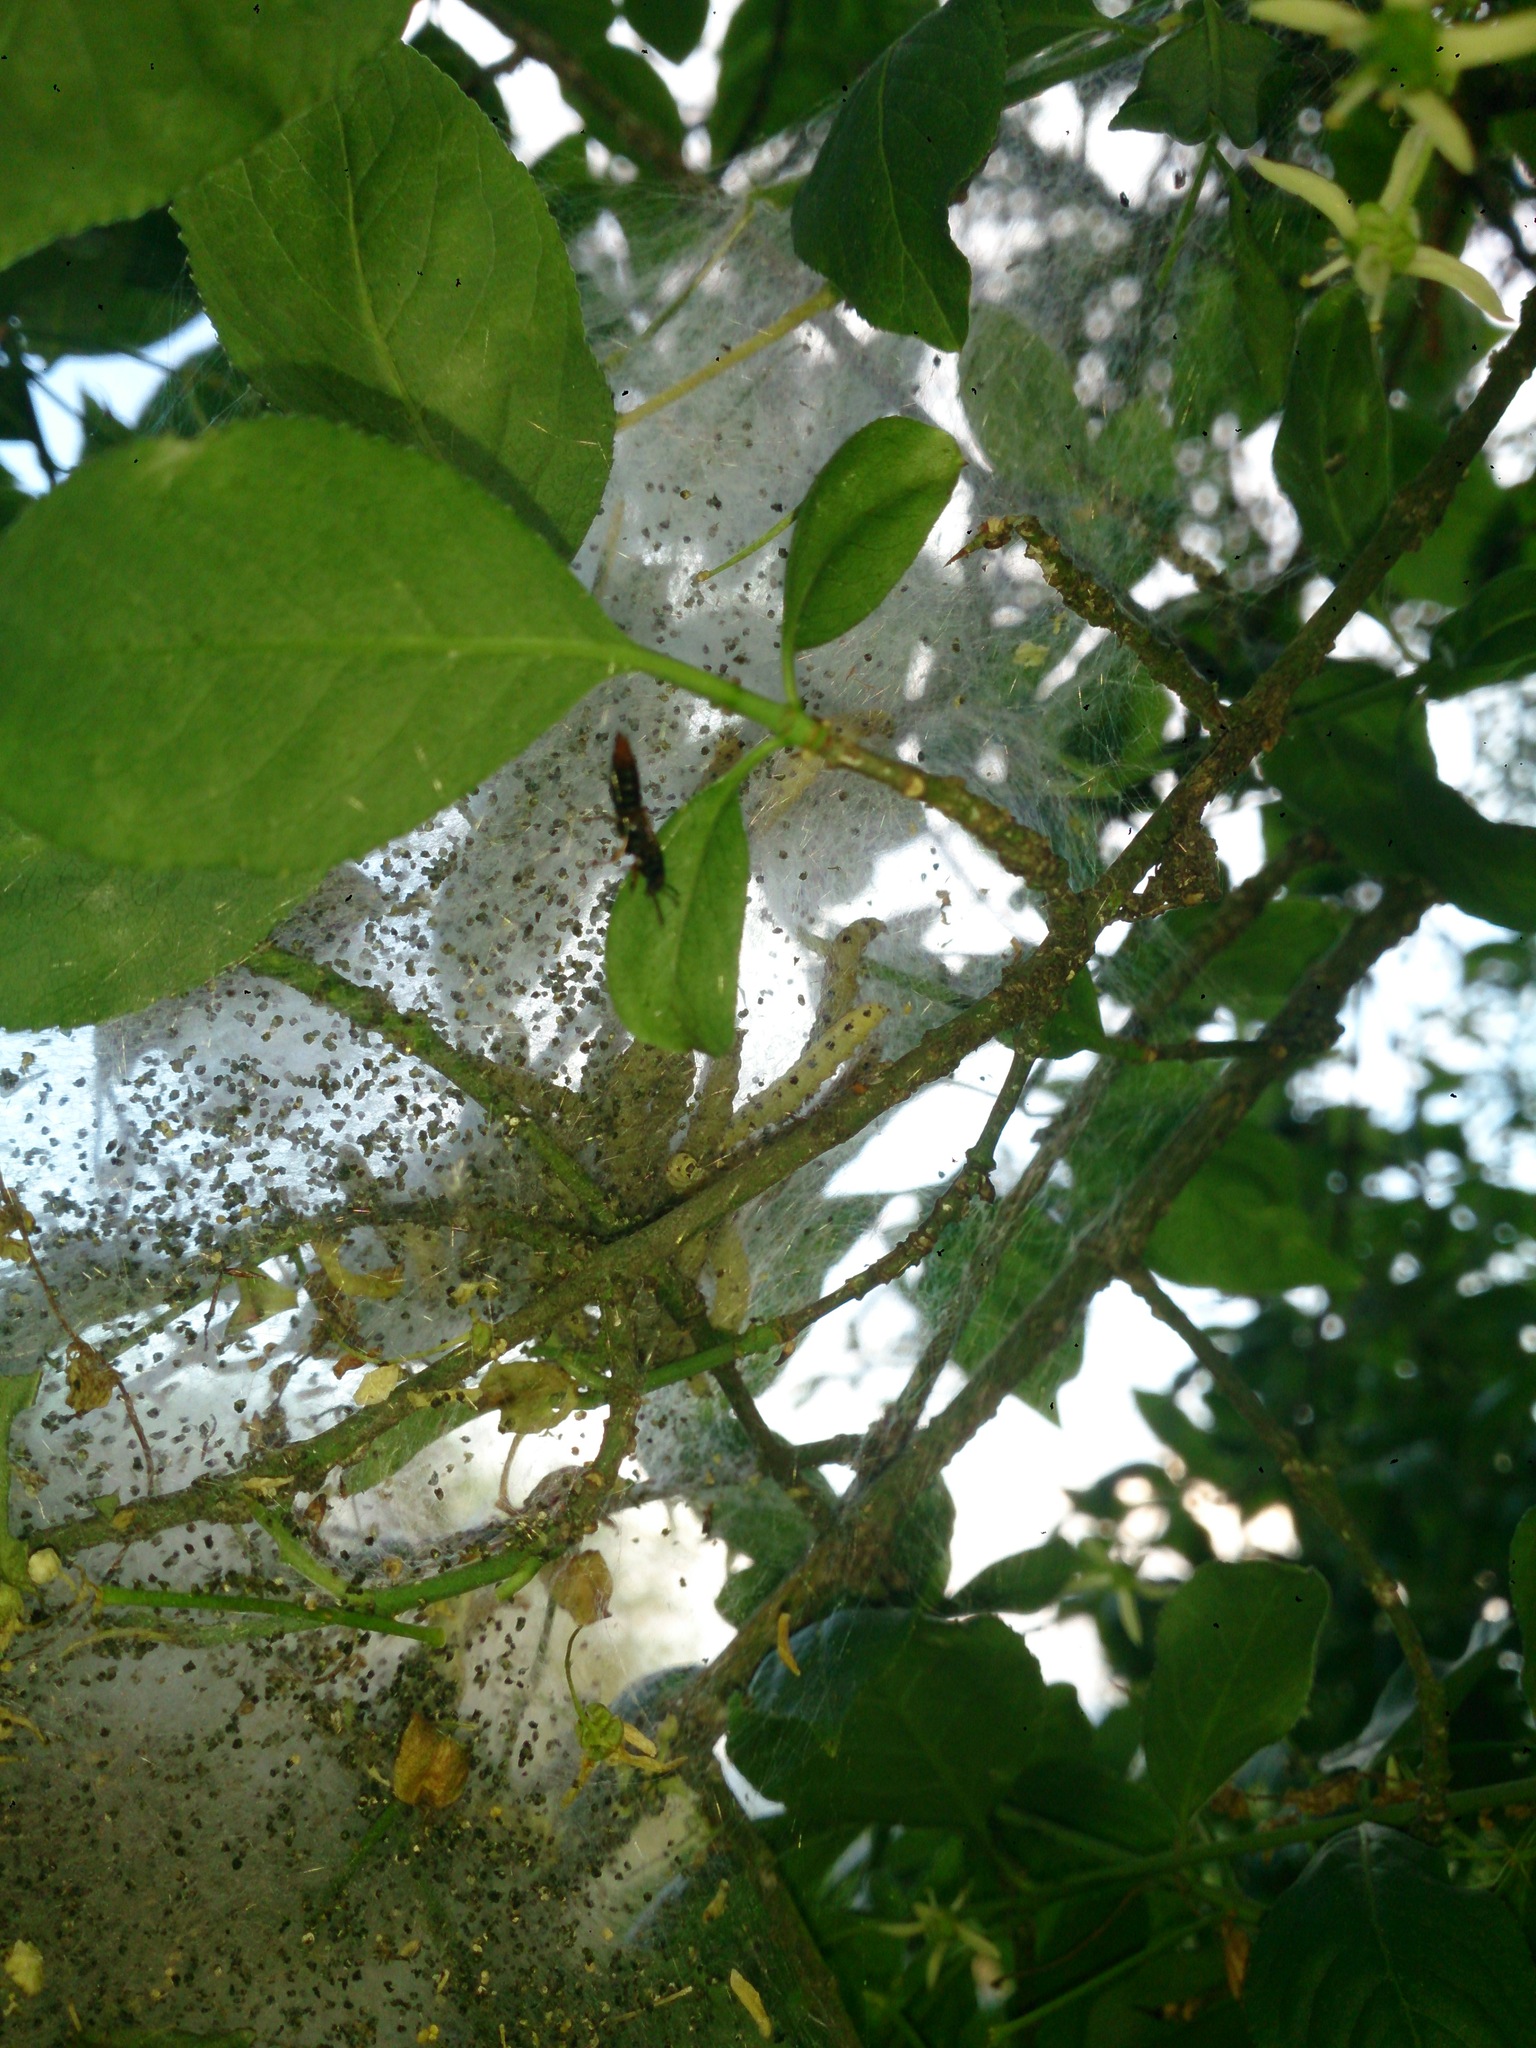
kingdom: Animalia
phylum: Arthropoda
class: Insecta
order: Lepidoptera
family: Yponomeutidae
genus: Yponomeuta
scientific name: Yponomeuta cagnagellus
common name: Spindle ermine
